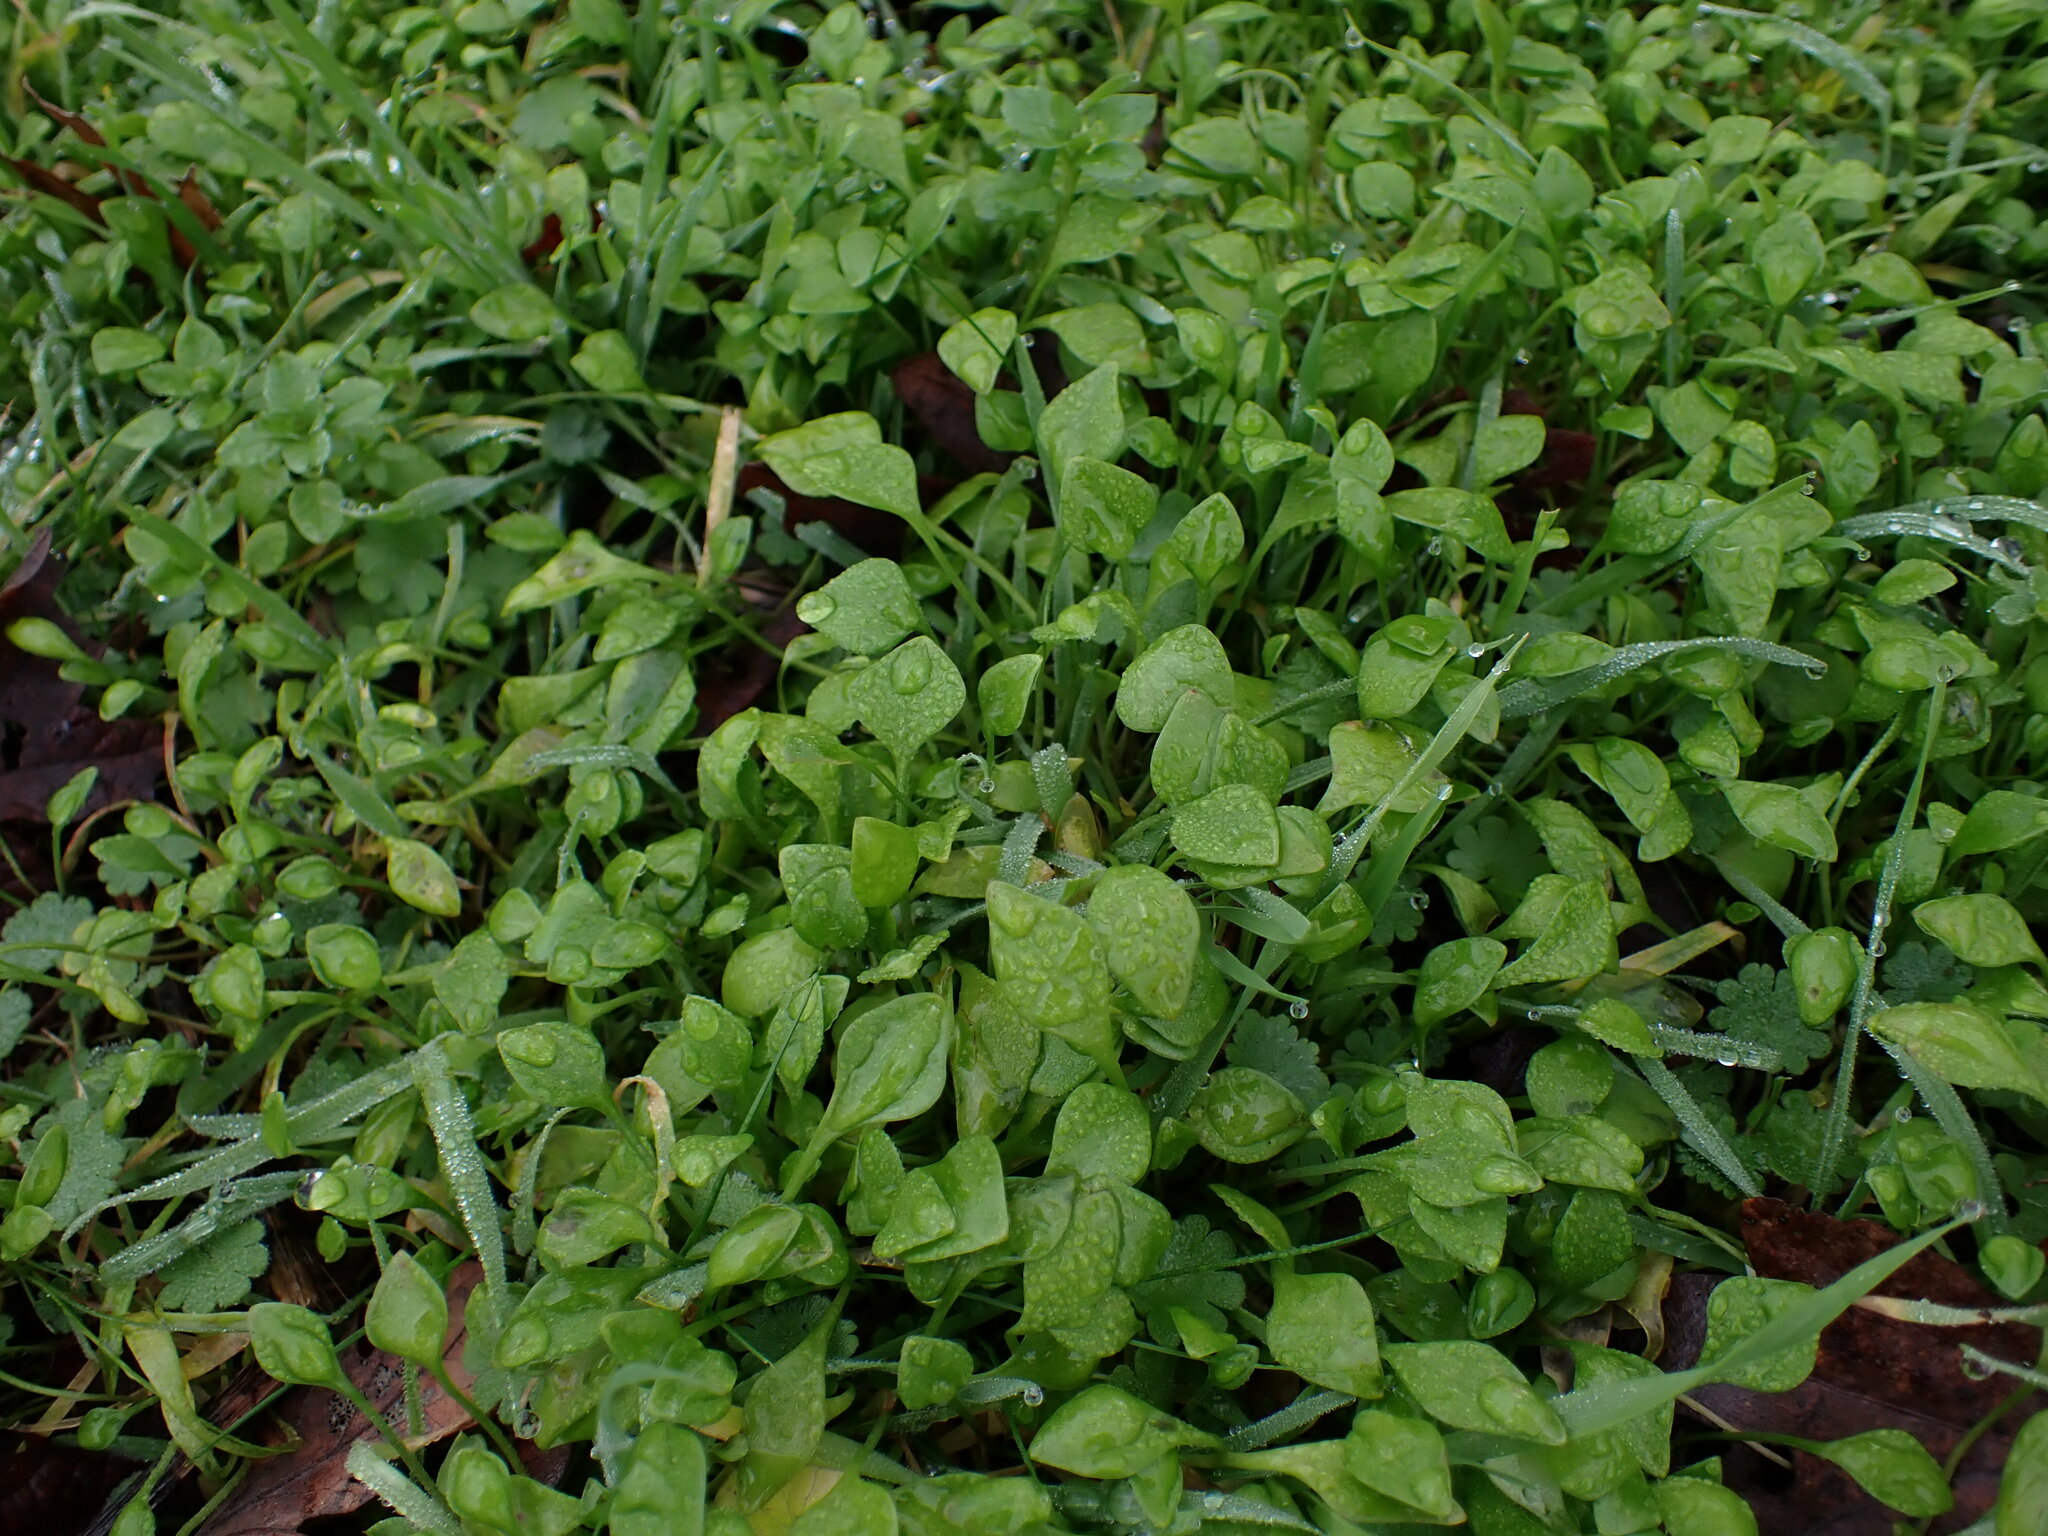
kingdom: Plantae
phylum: Tracheophyta
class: Magnoliopsida
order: Caryophyllales
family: Montiaceae
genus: Claytonia
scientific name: Claytonia perfoliata
